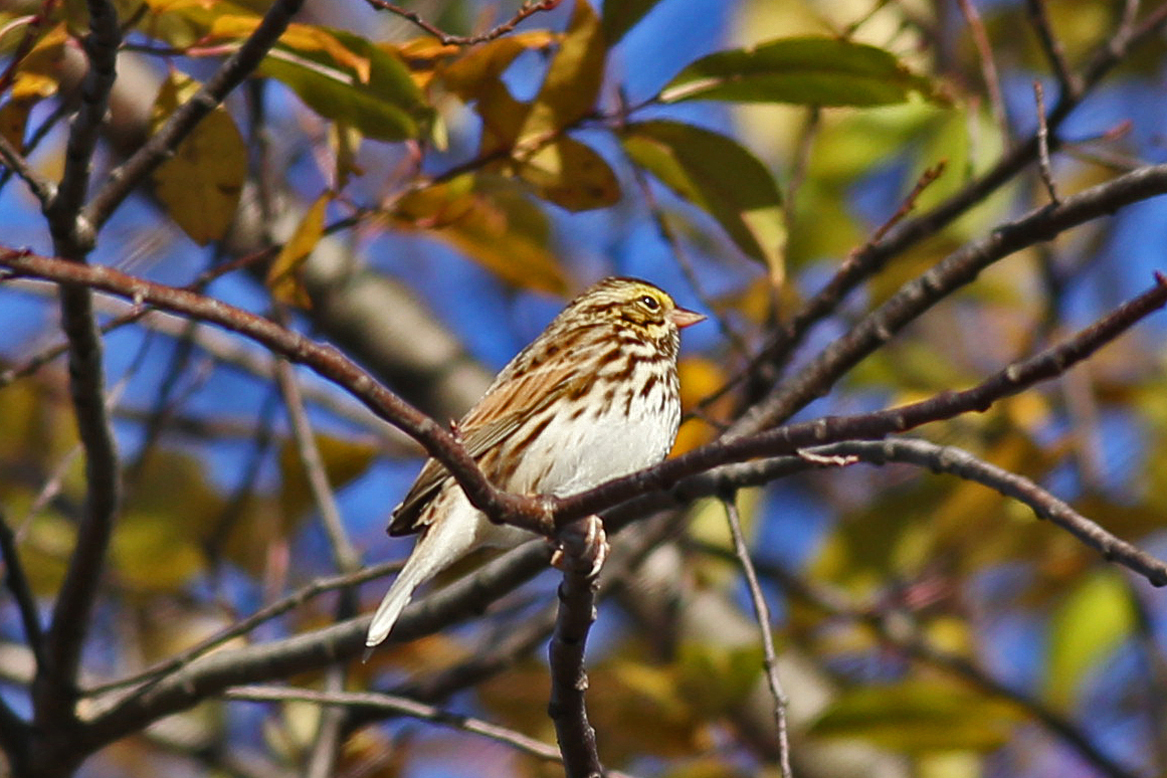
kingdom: Animalia
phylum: Chordata
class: Aves
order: Passeriformes
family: Passerellidae
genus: Passerculus
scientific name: Passerculus sandwichensis
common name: Savannah sparrow
